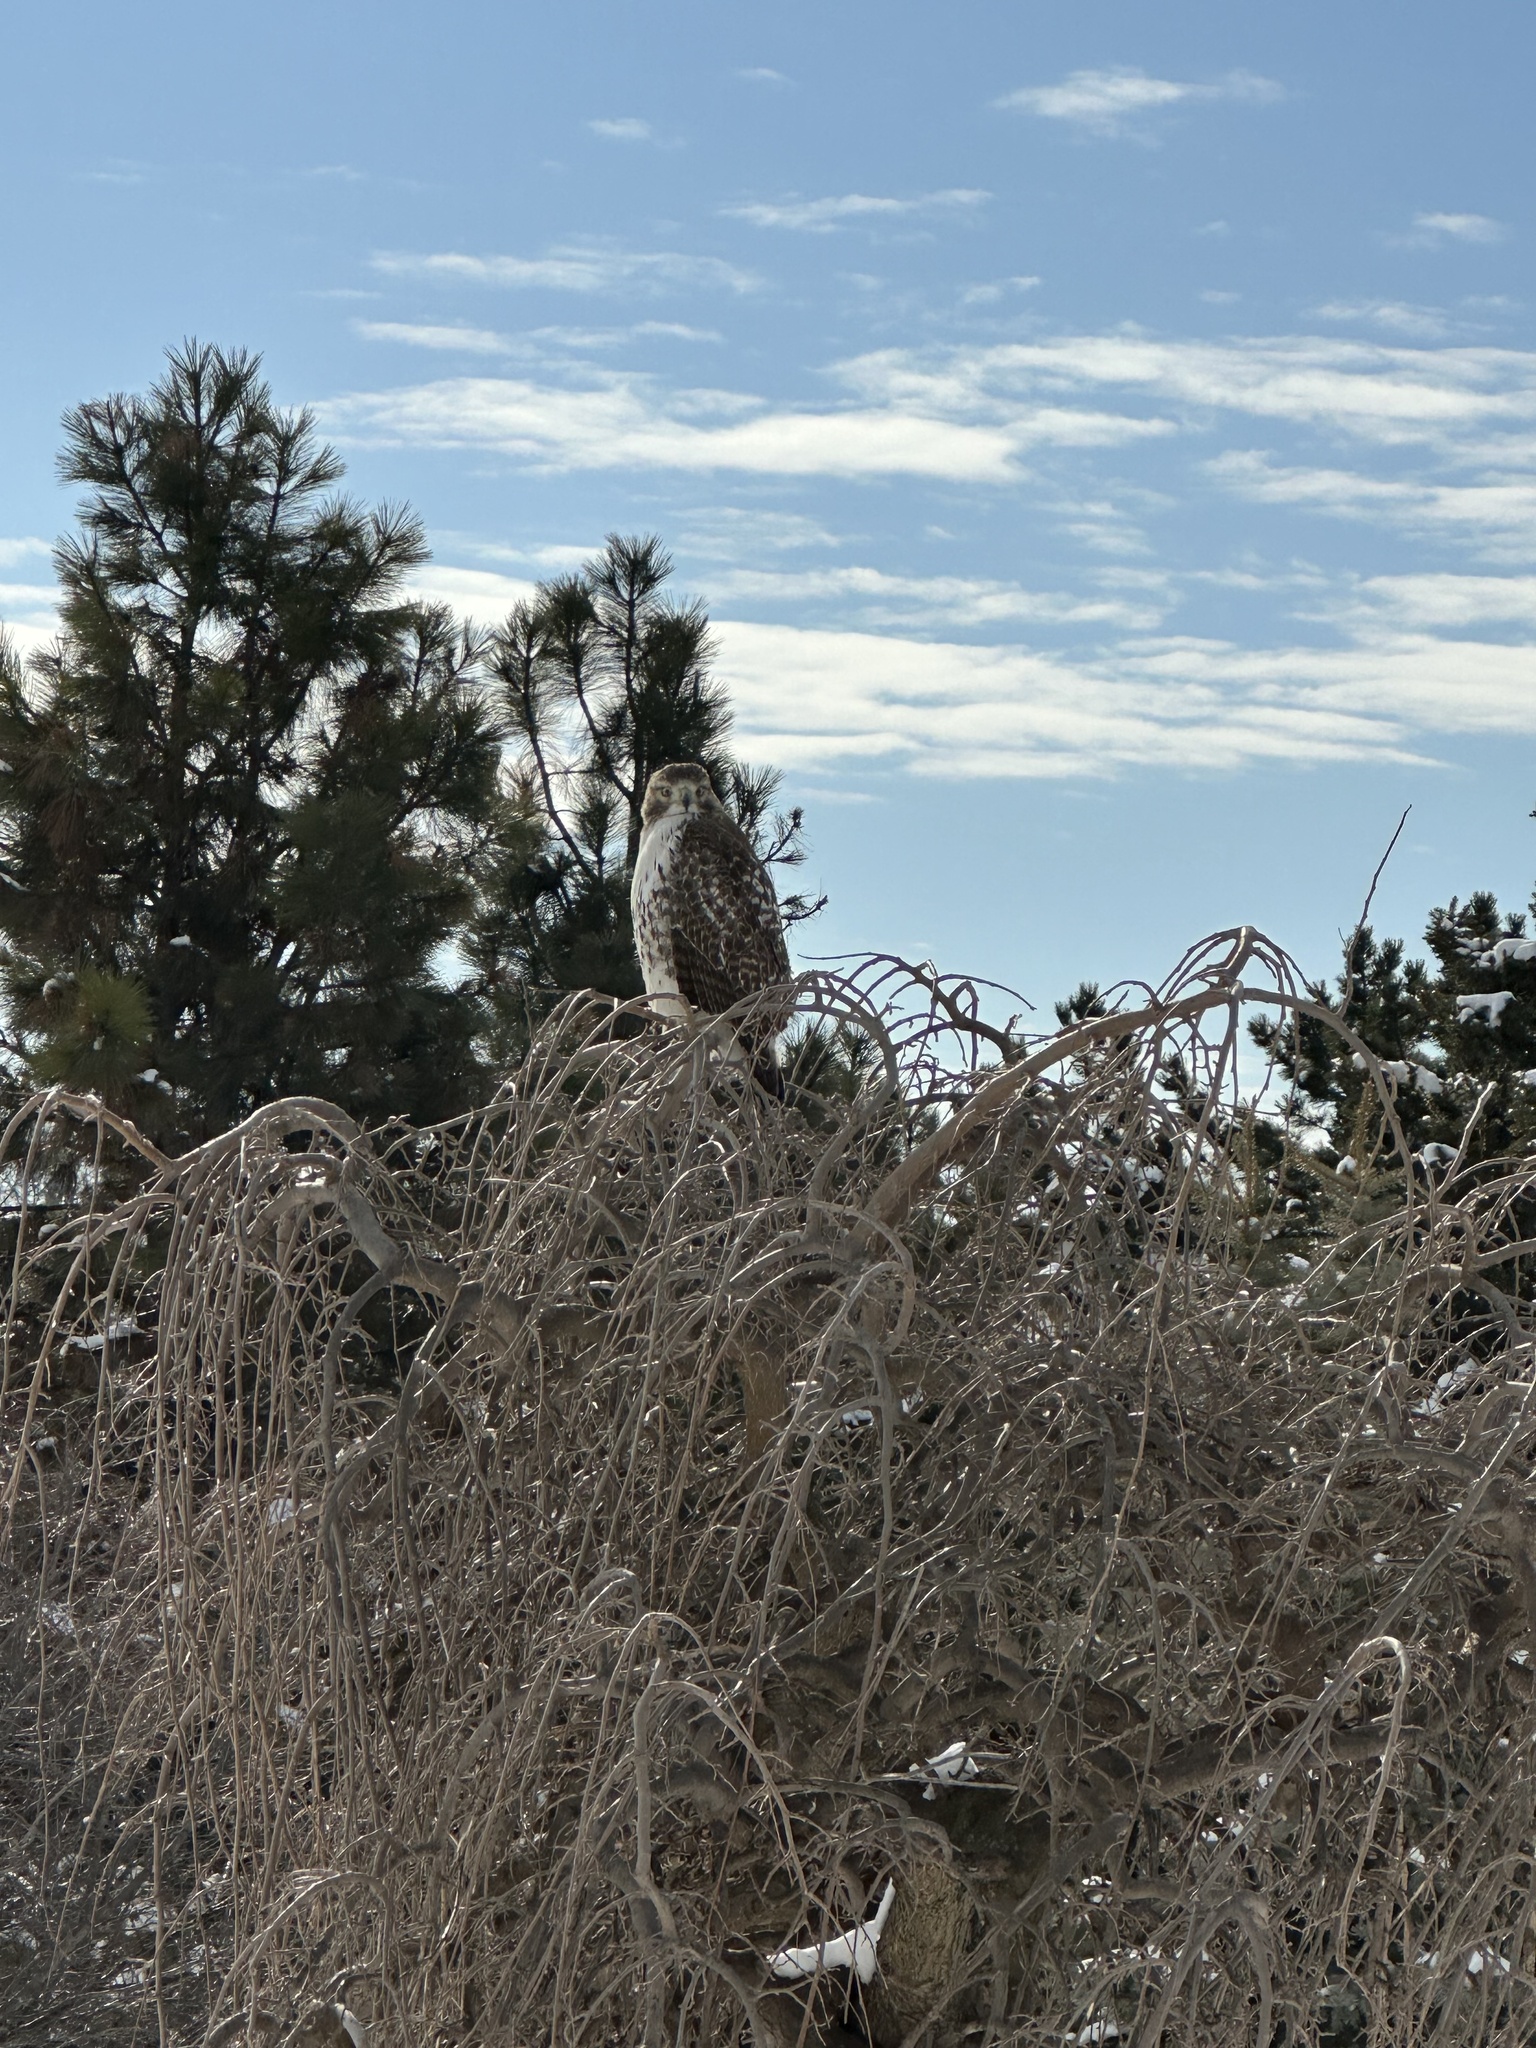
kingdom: Animalia
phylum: Chordata
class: Aves
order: Accipitriformes
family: Accipitridae
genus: Buteo
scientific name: Buteo jamaicensis
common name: Red-tailed hawk
